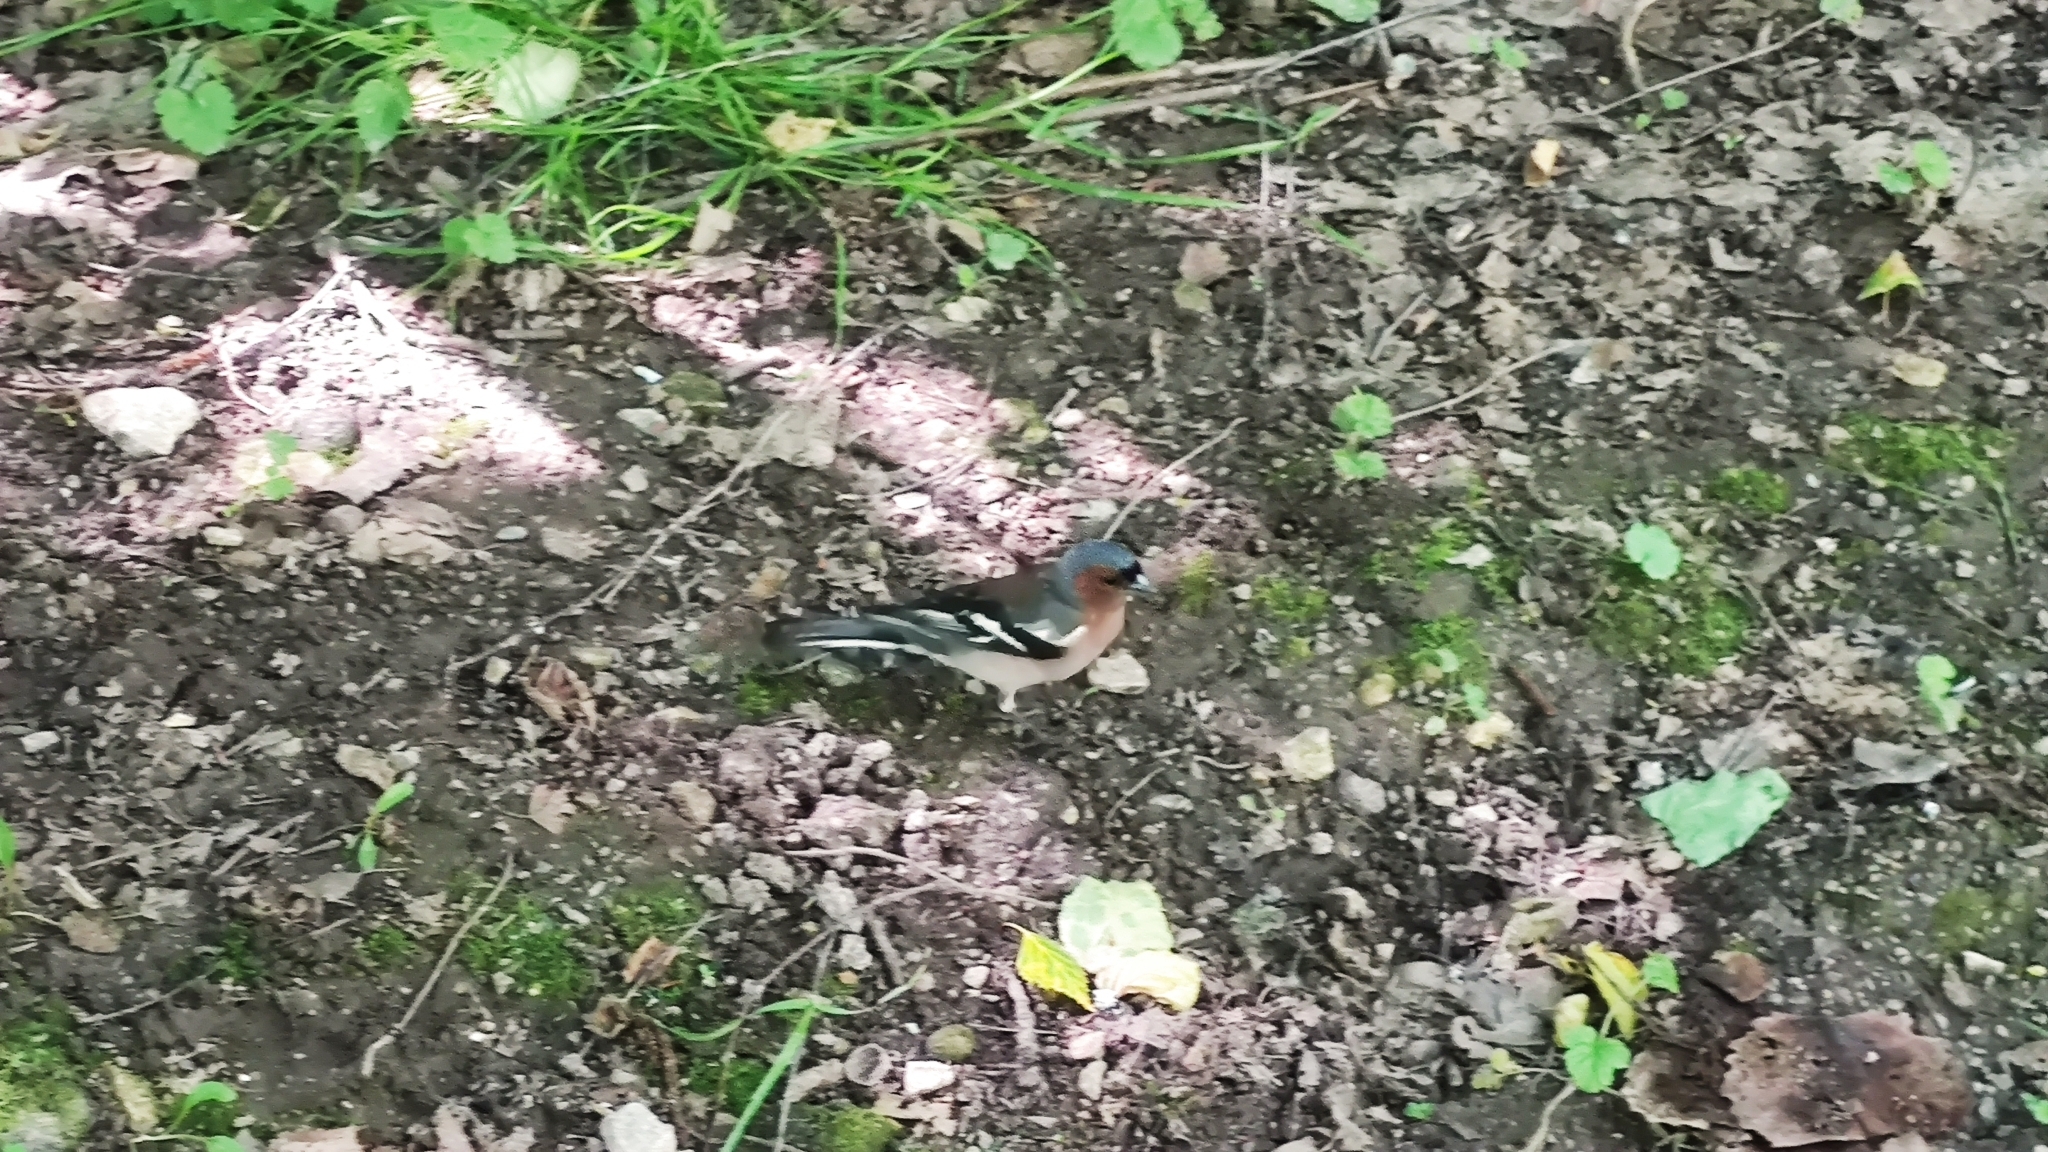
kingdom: Animalia
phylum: Chordata
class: Aves
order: Passeriformes
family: Fringillidae
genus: Fringilla
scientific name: Fringilla coelebs
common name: Common chaffinch
